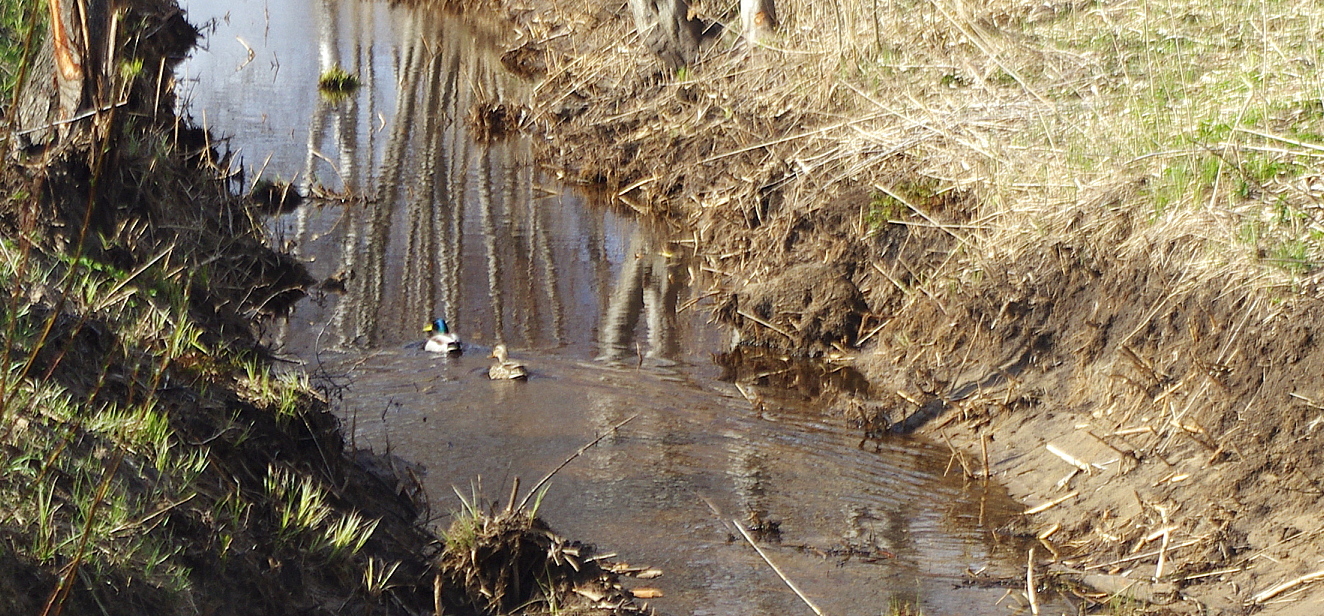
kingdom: Animalia
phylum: Chordata
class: Aves
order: Anseriformes
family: Anatidae
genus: Anas
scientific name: Anas platyrhynchos
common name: Mallard
